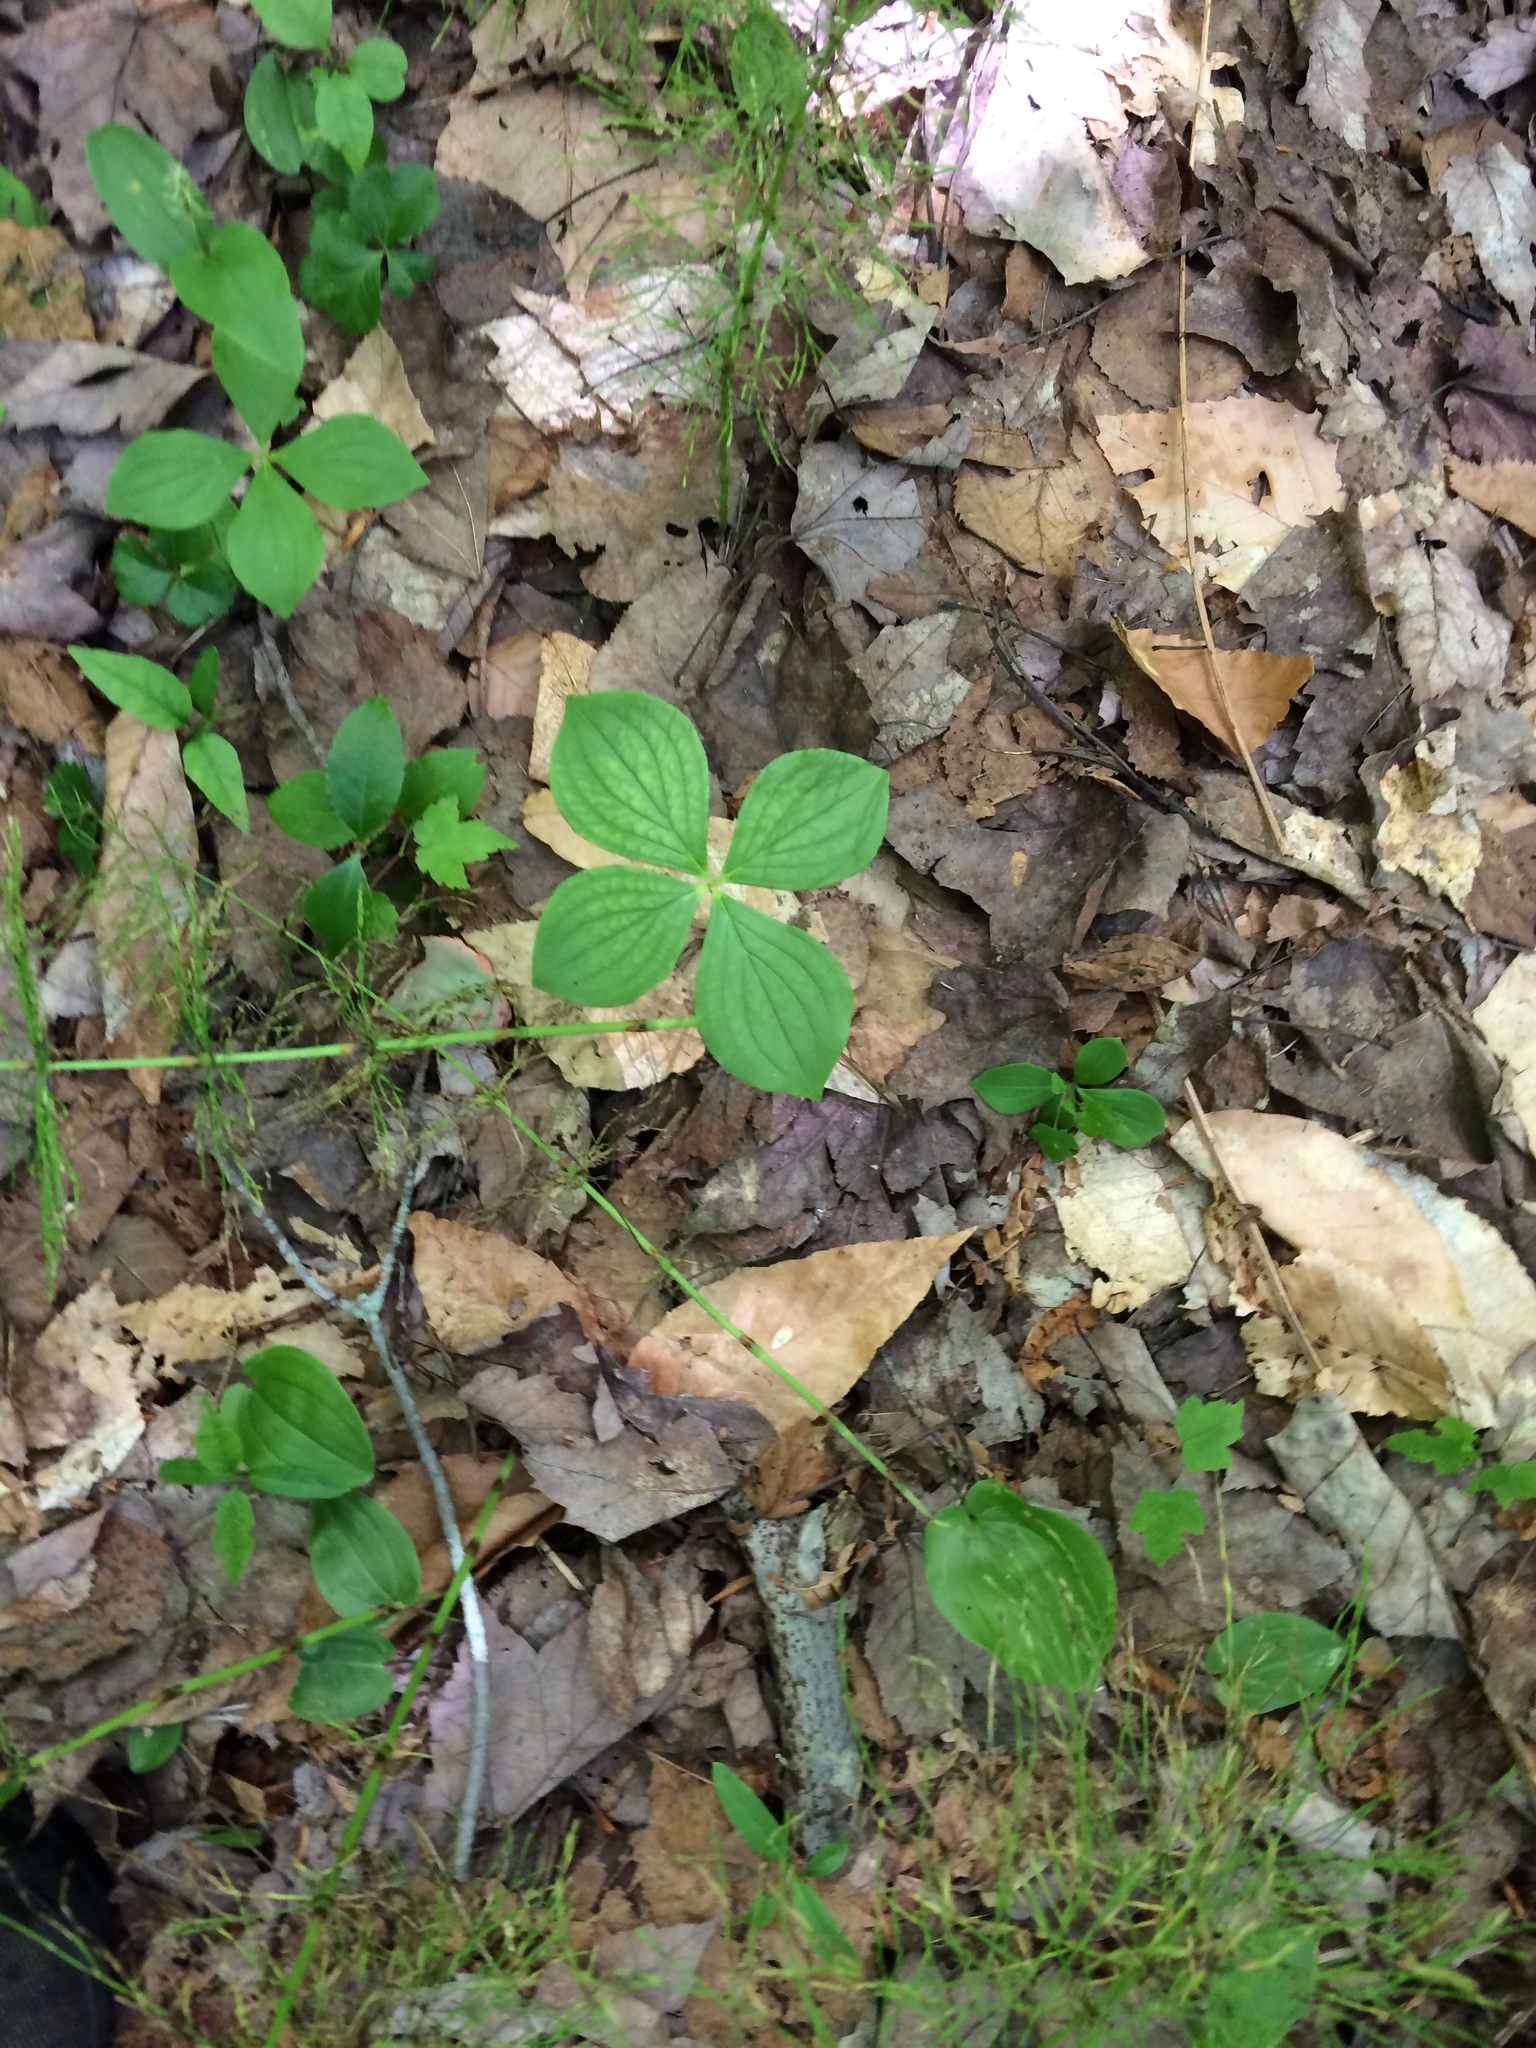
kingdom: Plantae
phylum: Tracheophyta
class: Magnoliopsida
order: Cornales
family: Cornaceae
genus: Cornus
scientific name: Cornus canadensis
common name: Creeping dogwood
